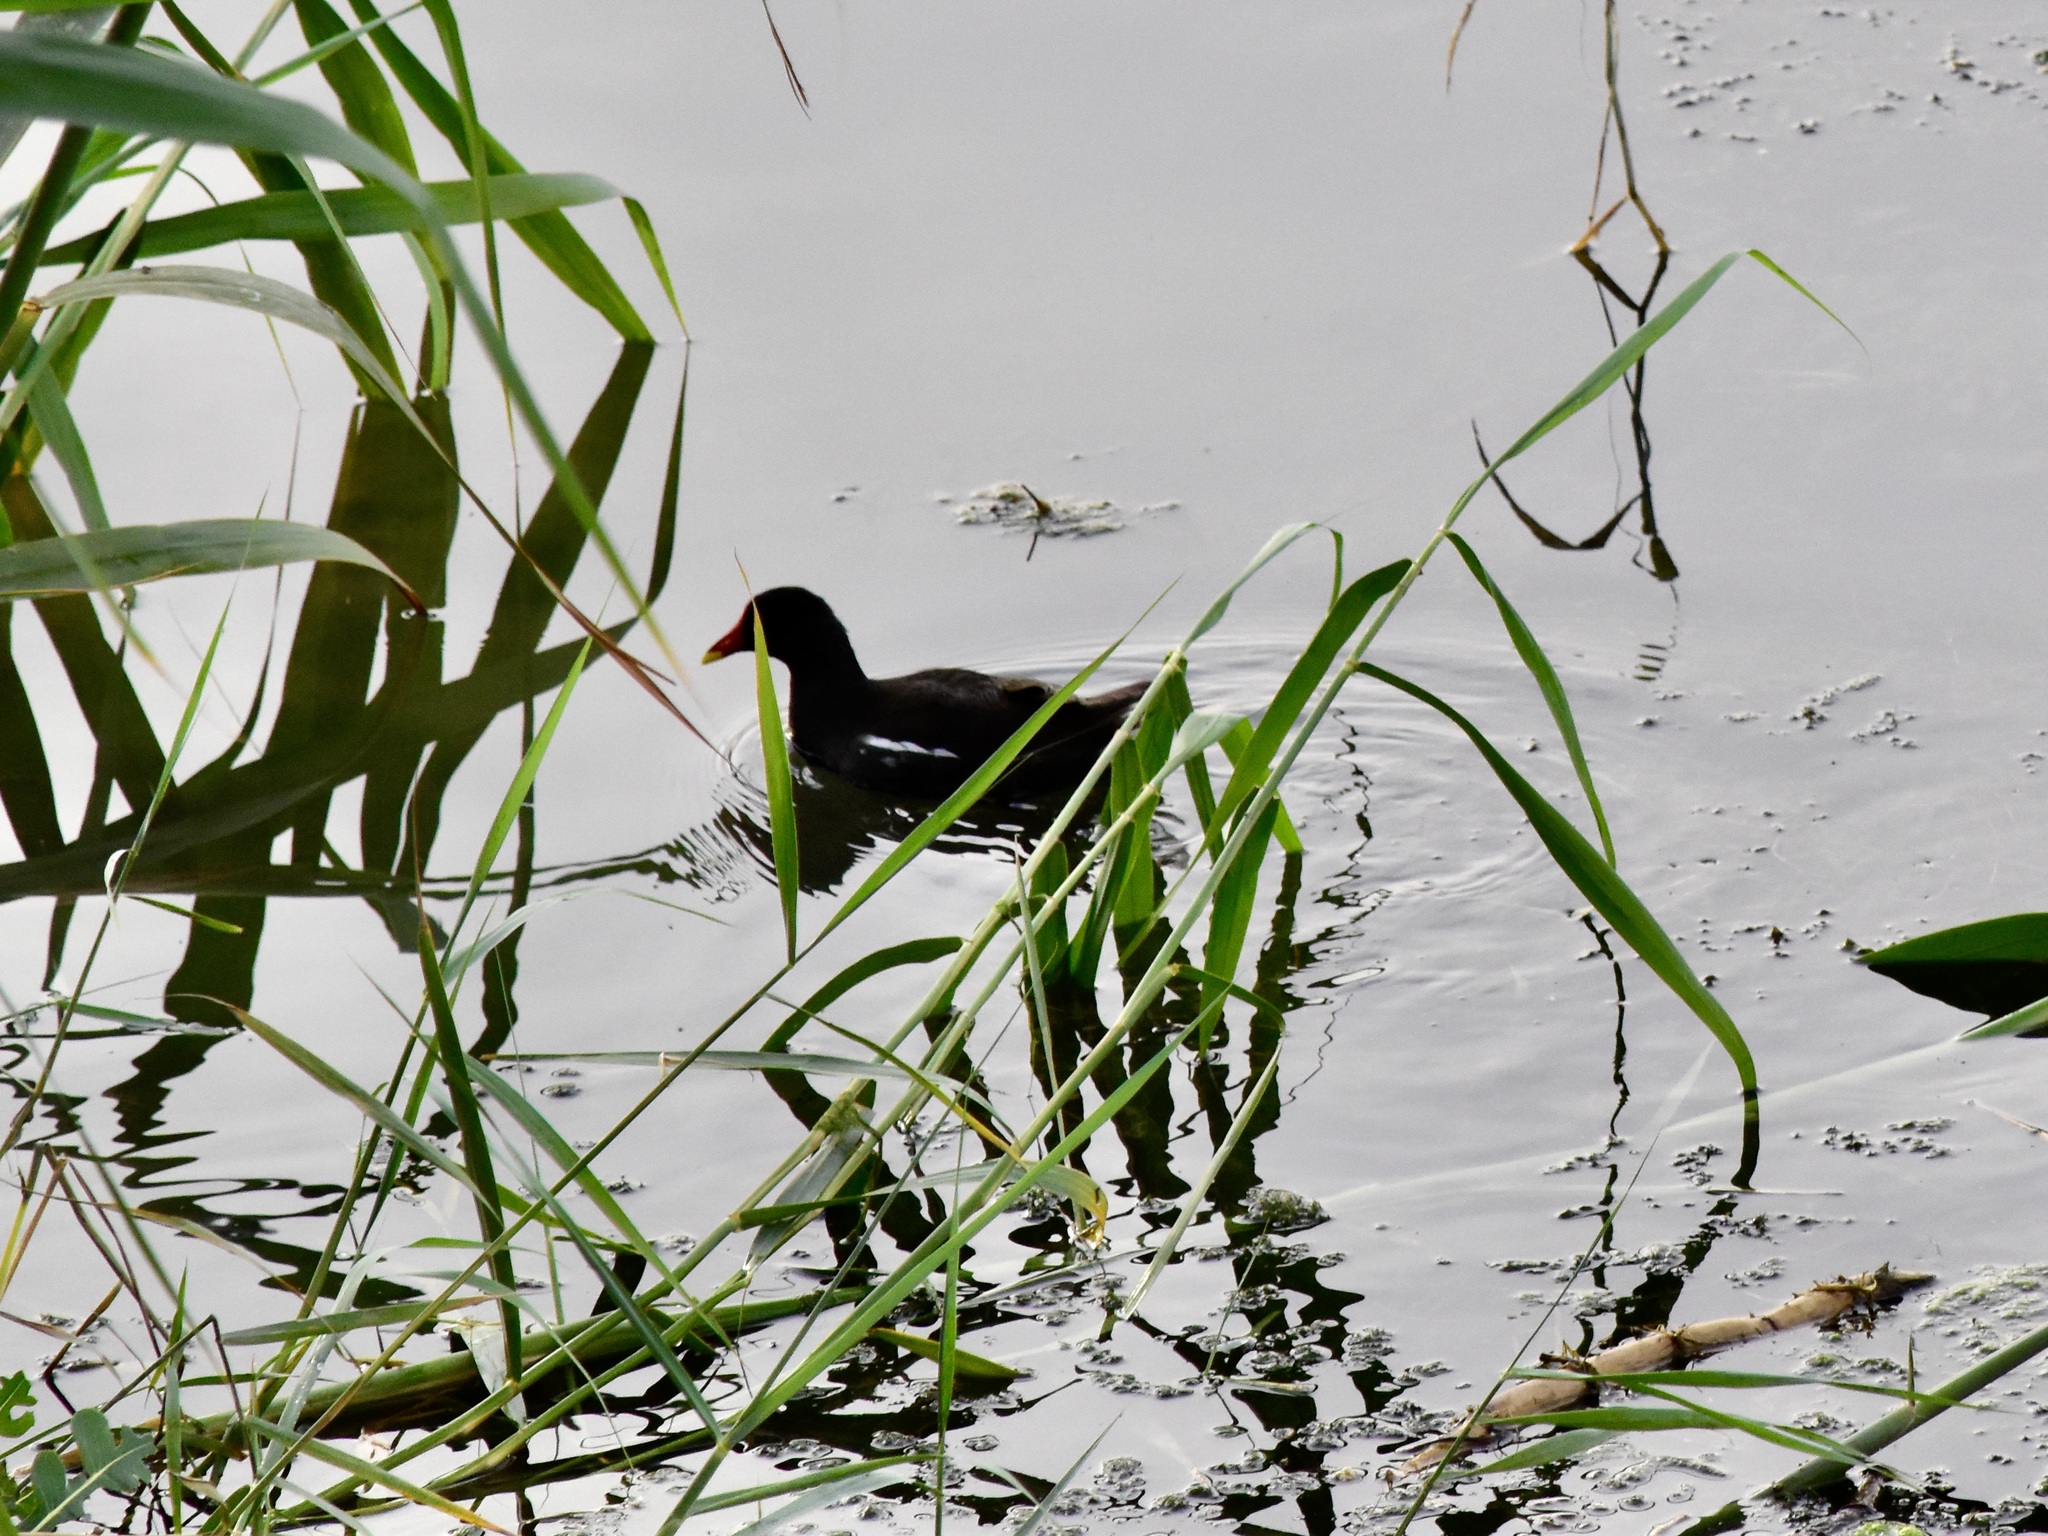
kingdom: Animalia
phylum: Chordata
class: Aves
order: Gruiformes
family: Rallidae
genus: Gallinula
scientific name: Gallinula chloropus
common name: Common moorhen
